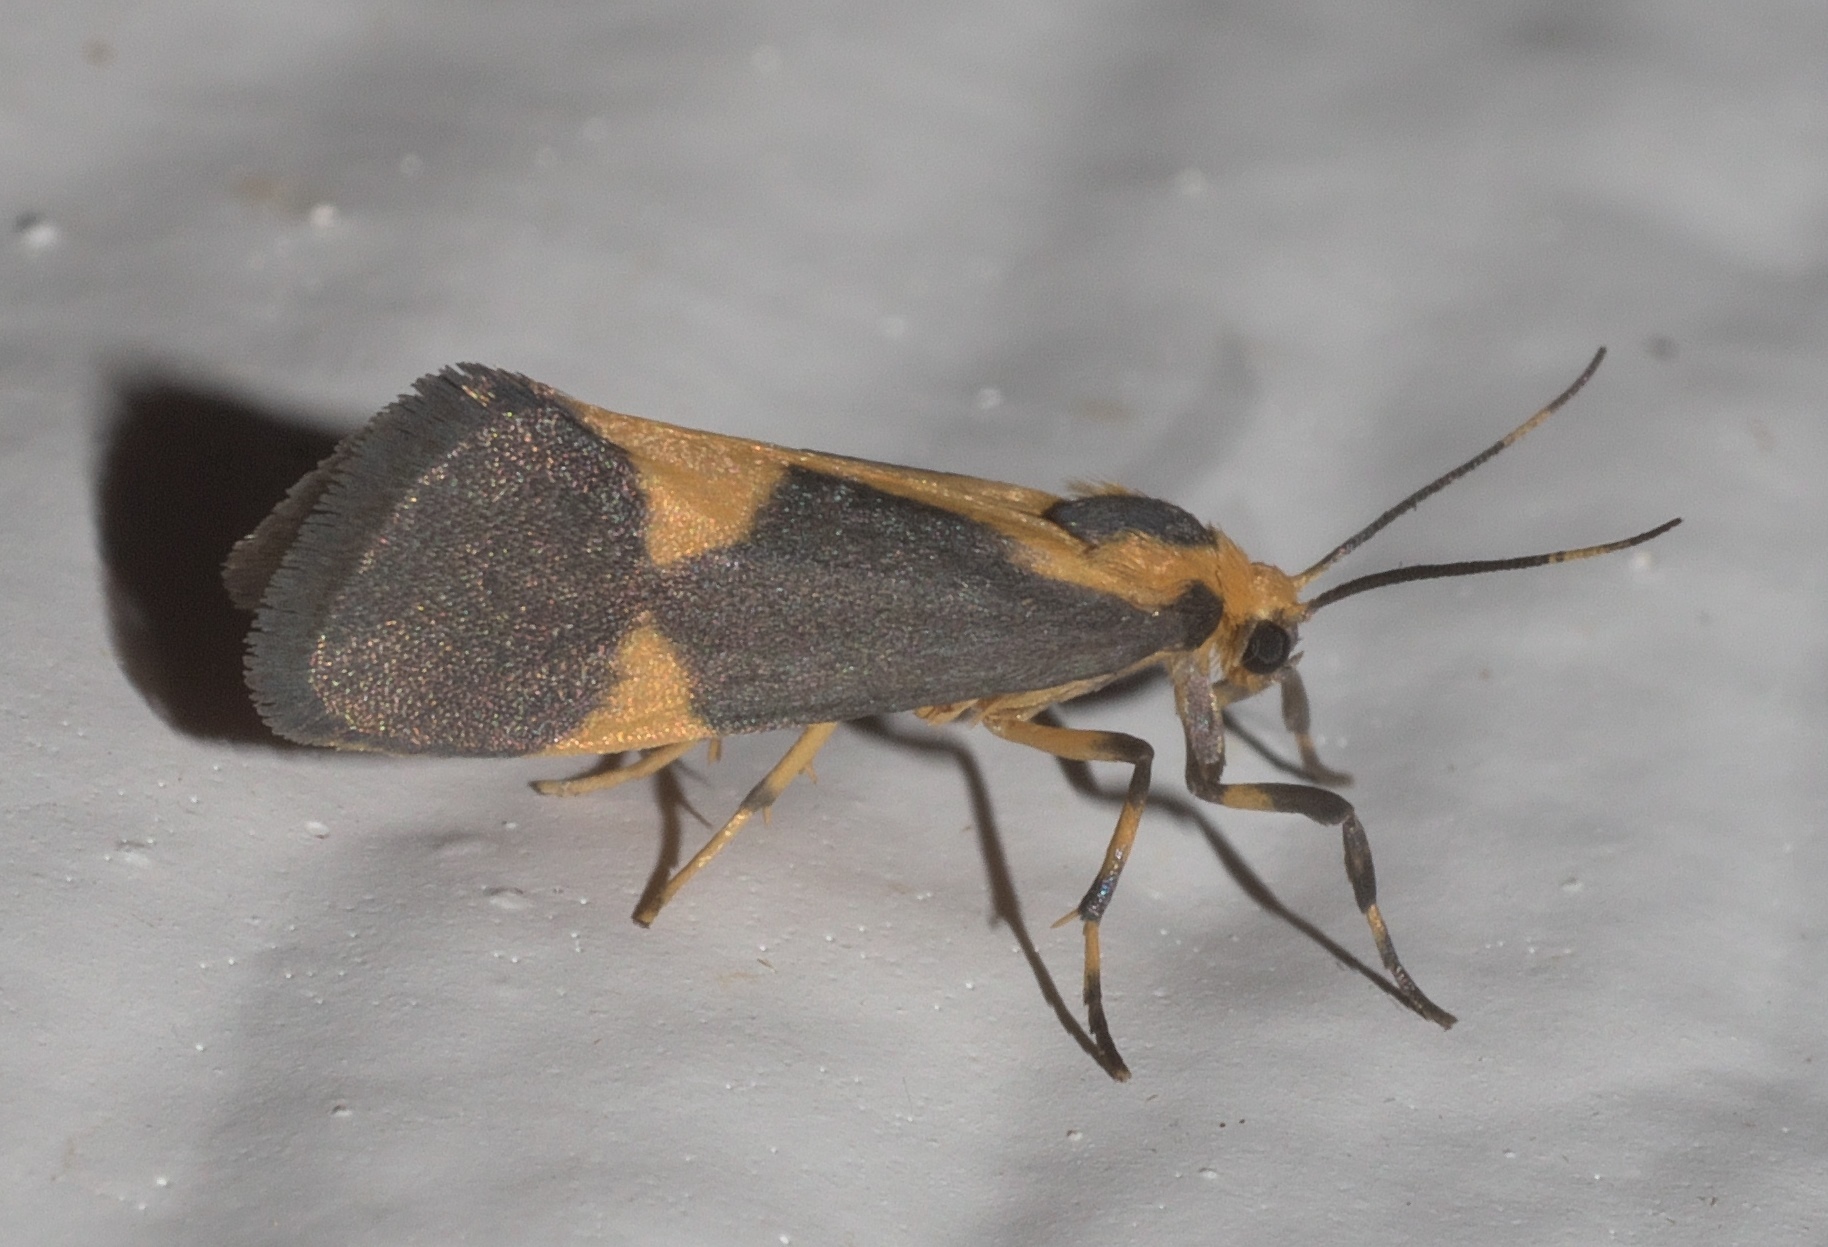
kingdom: Animalia
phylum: Arthropoda
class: Insecta
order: Lepidoptera
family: Erebidae
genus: Cisthene
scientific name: Cisthene unifascia
